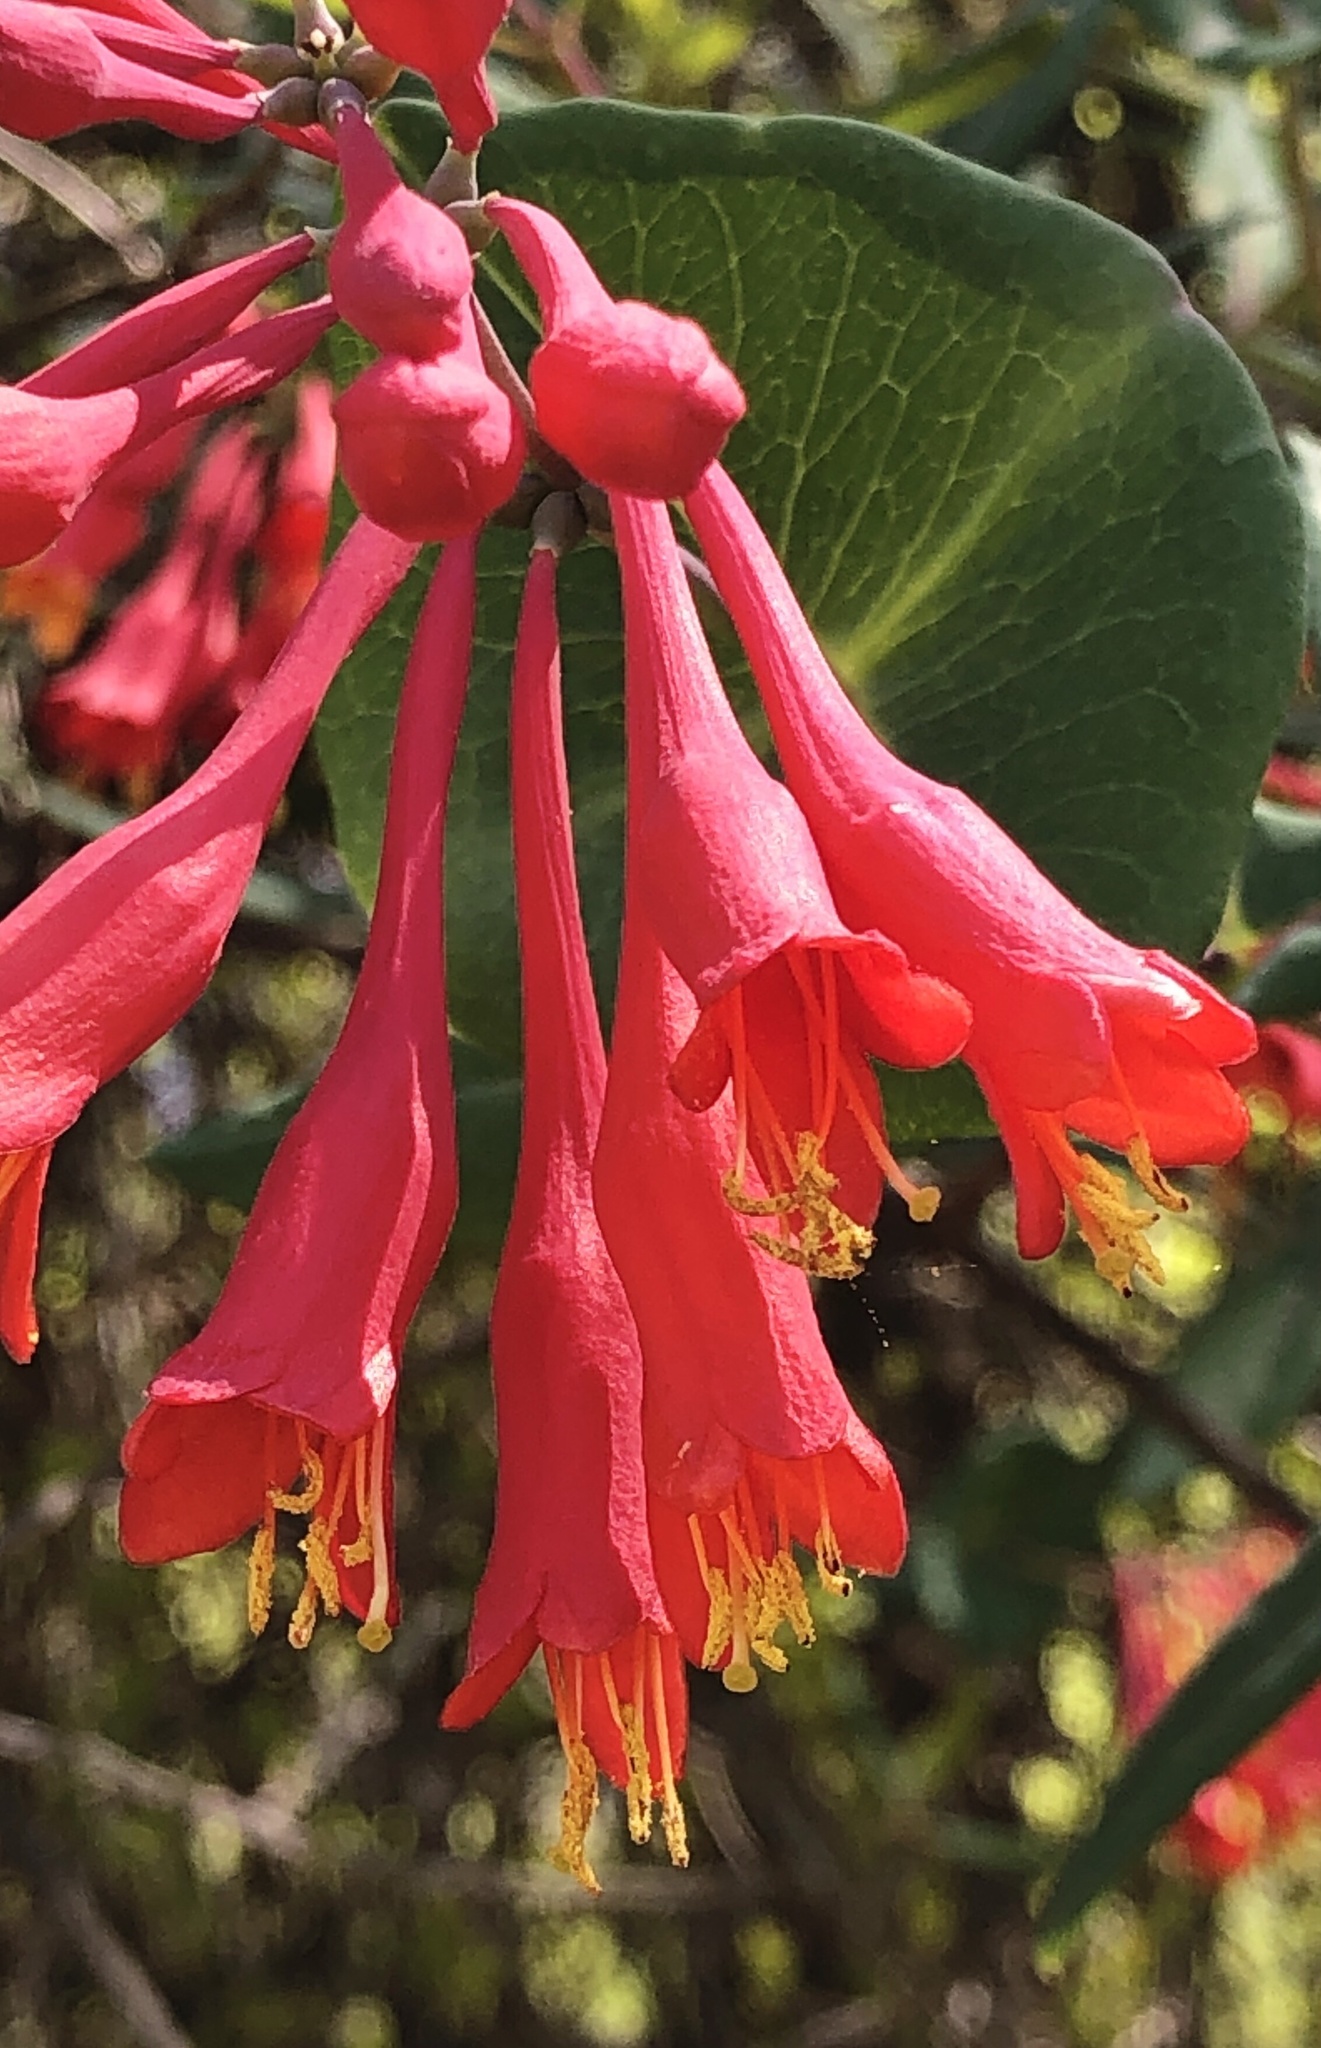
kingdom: Plantae
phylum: Tracheophyta
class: Magnoliopsida
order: Dipsacales
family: Caprifoliaceae
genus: Lonicera
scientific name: Lonicera sempervirens
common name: Coral honeysuckle
